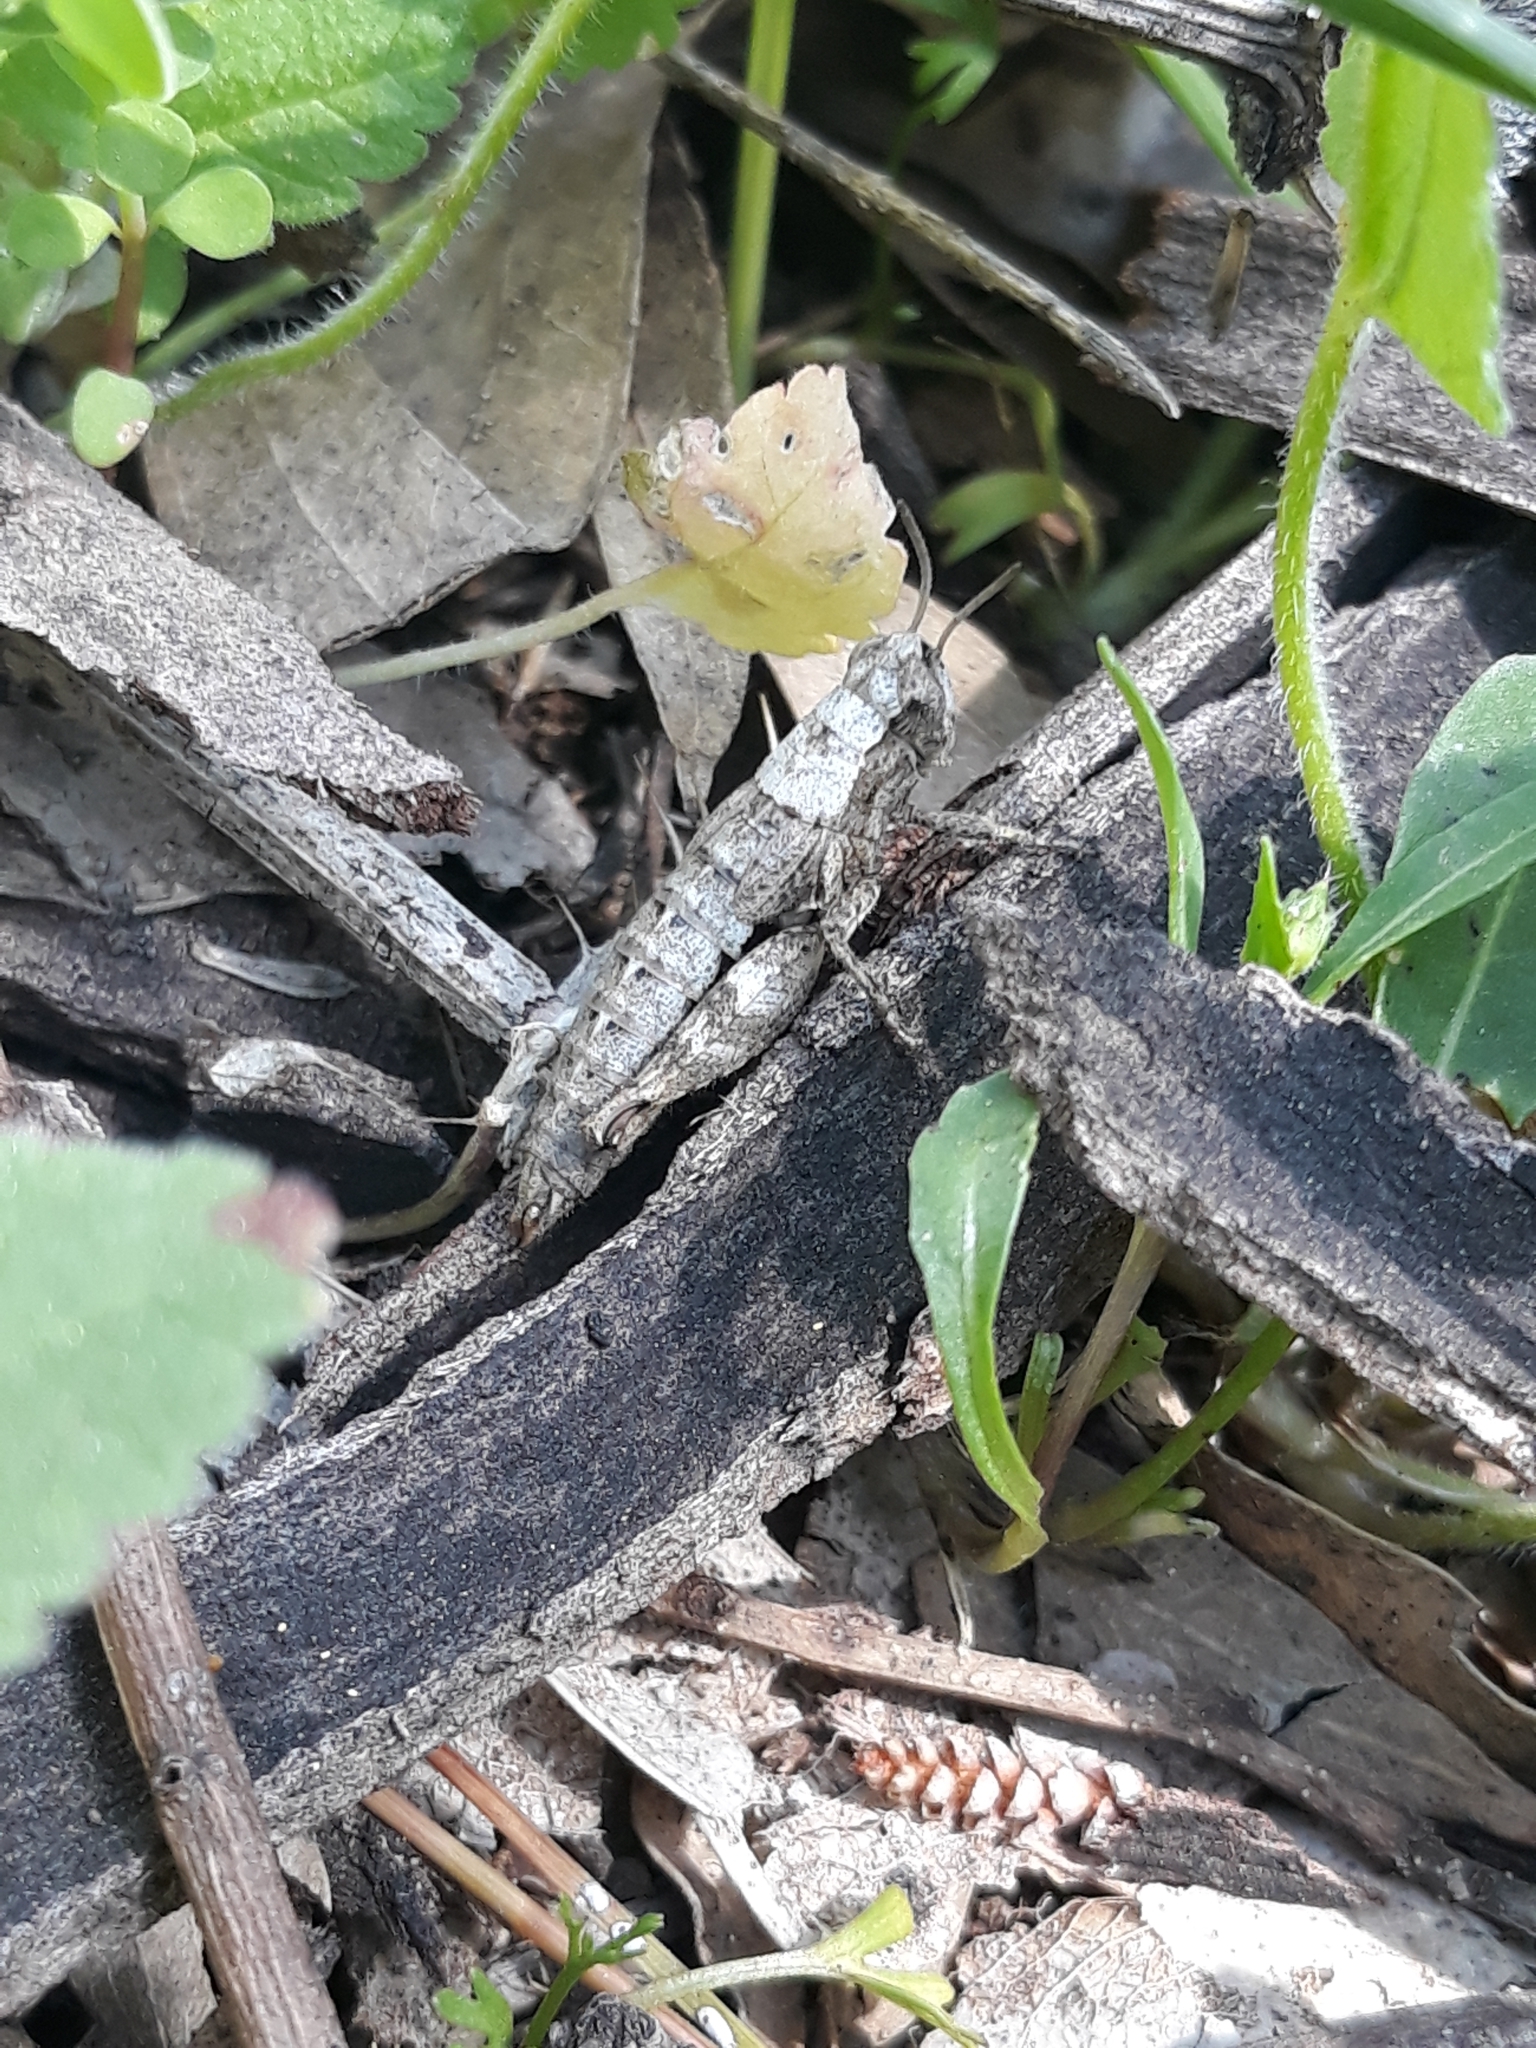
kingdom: Animalia
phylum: Arthropoda
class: Insecta
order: Orthoptera
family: Acrididae
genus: Pezotettix
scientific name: Pezotettix giornae
